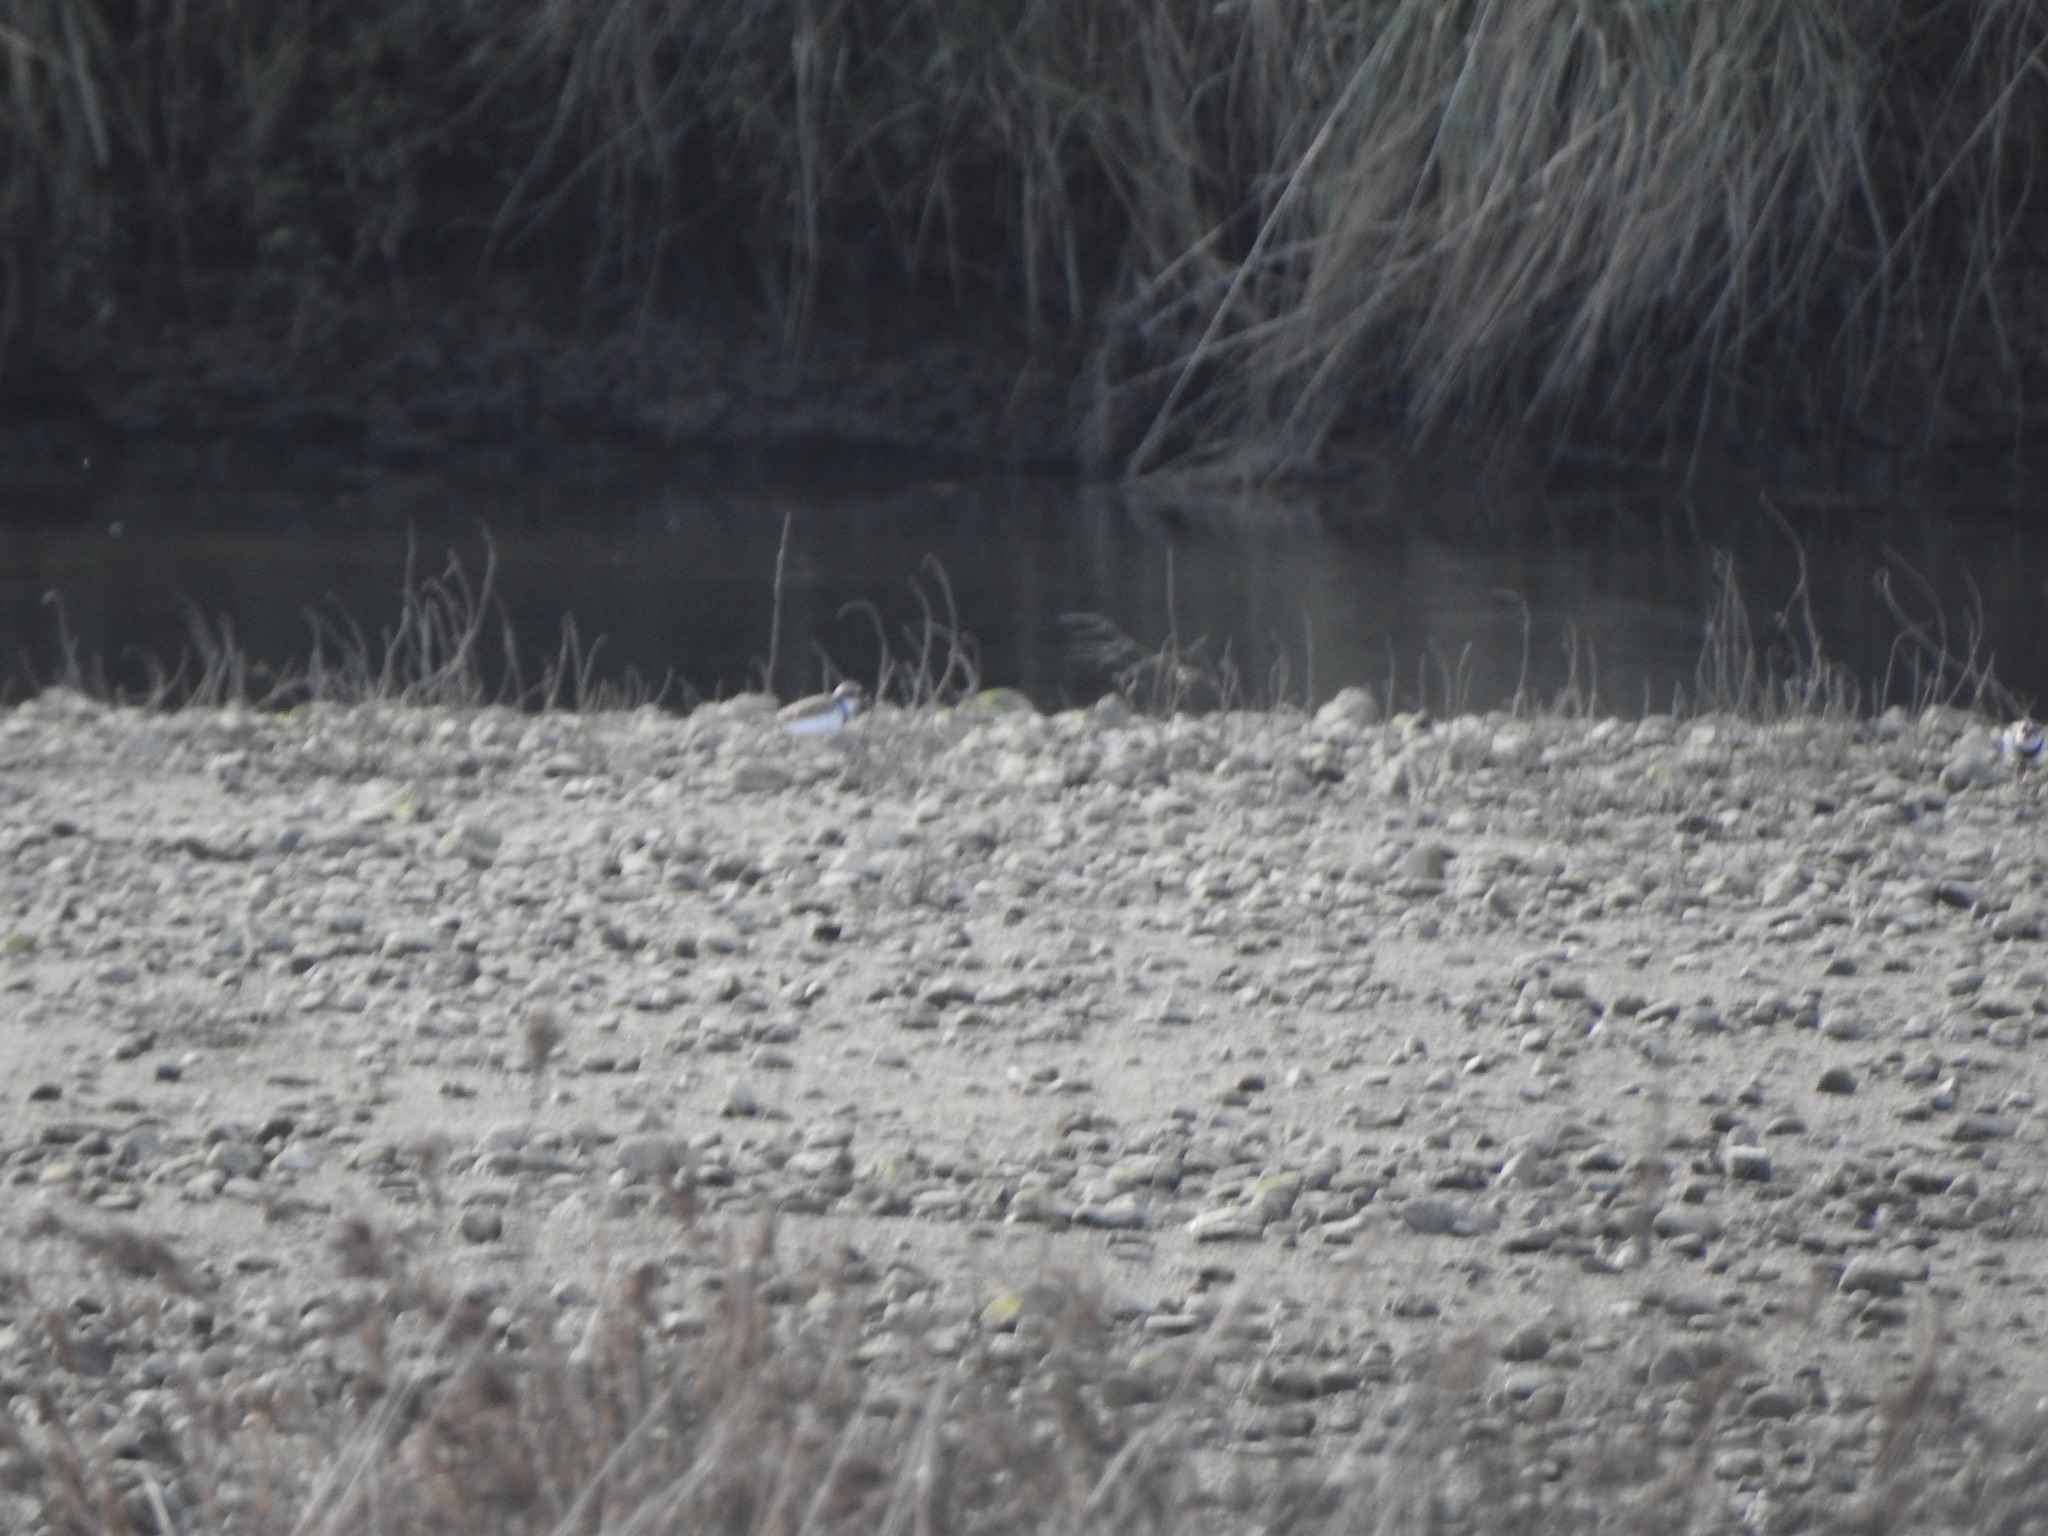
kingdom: Animalia
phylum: Chordata
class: Aves
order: Charadriiformes
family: Charadriidae
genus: Elseyornis
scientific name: Elseyornis melanops
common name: Black-fronted dotterel
